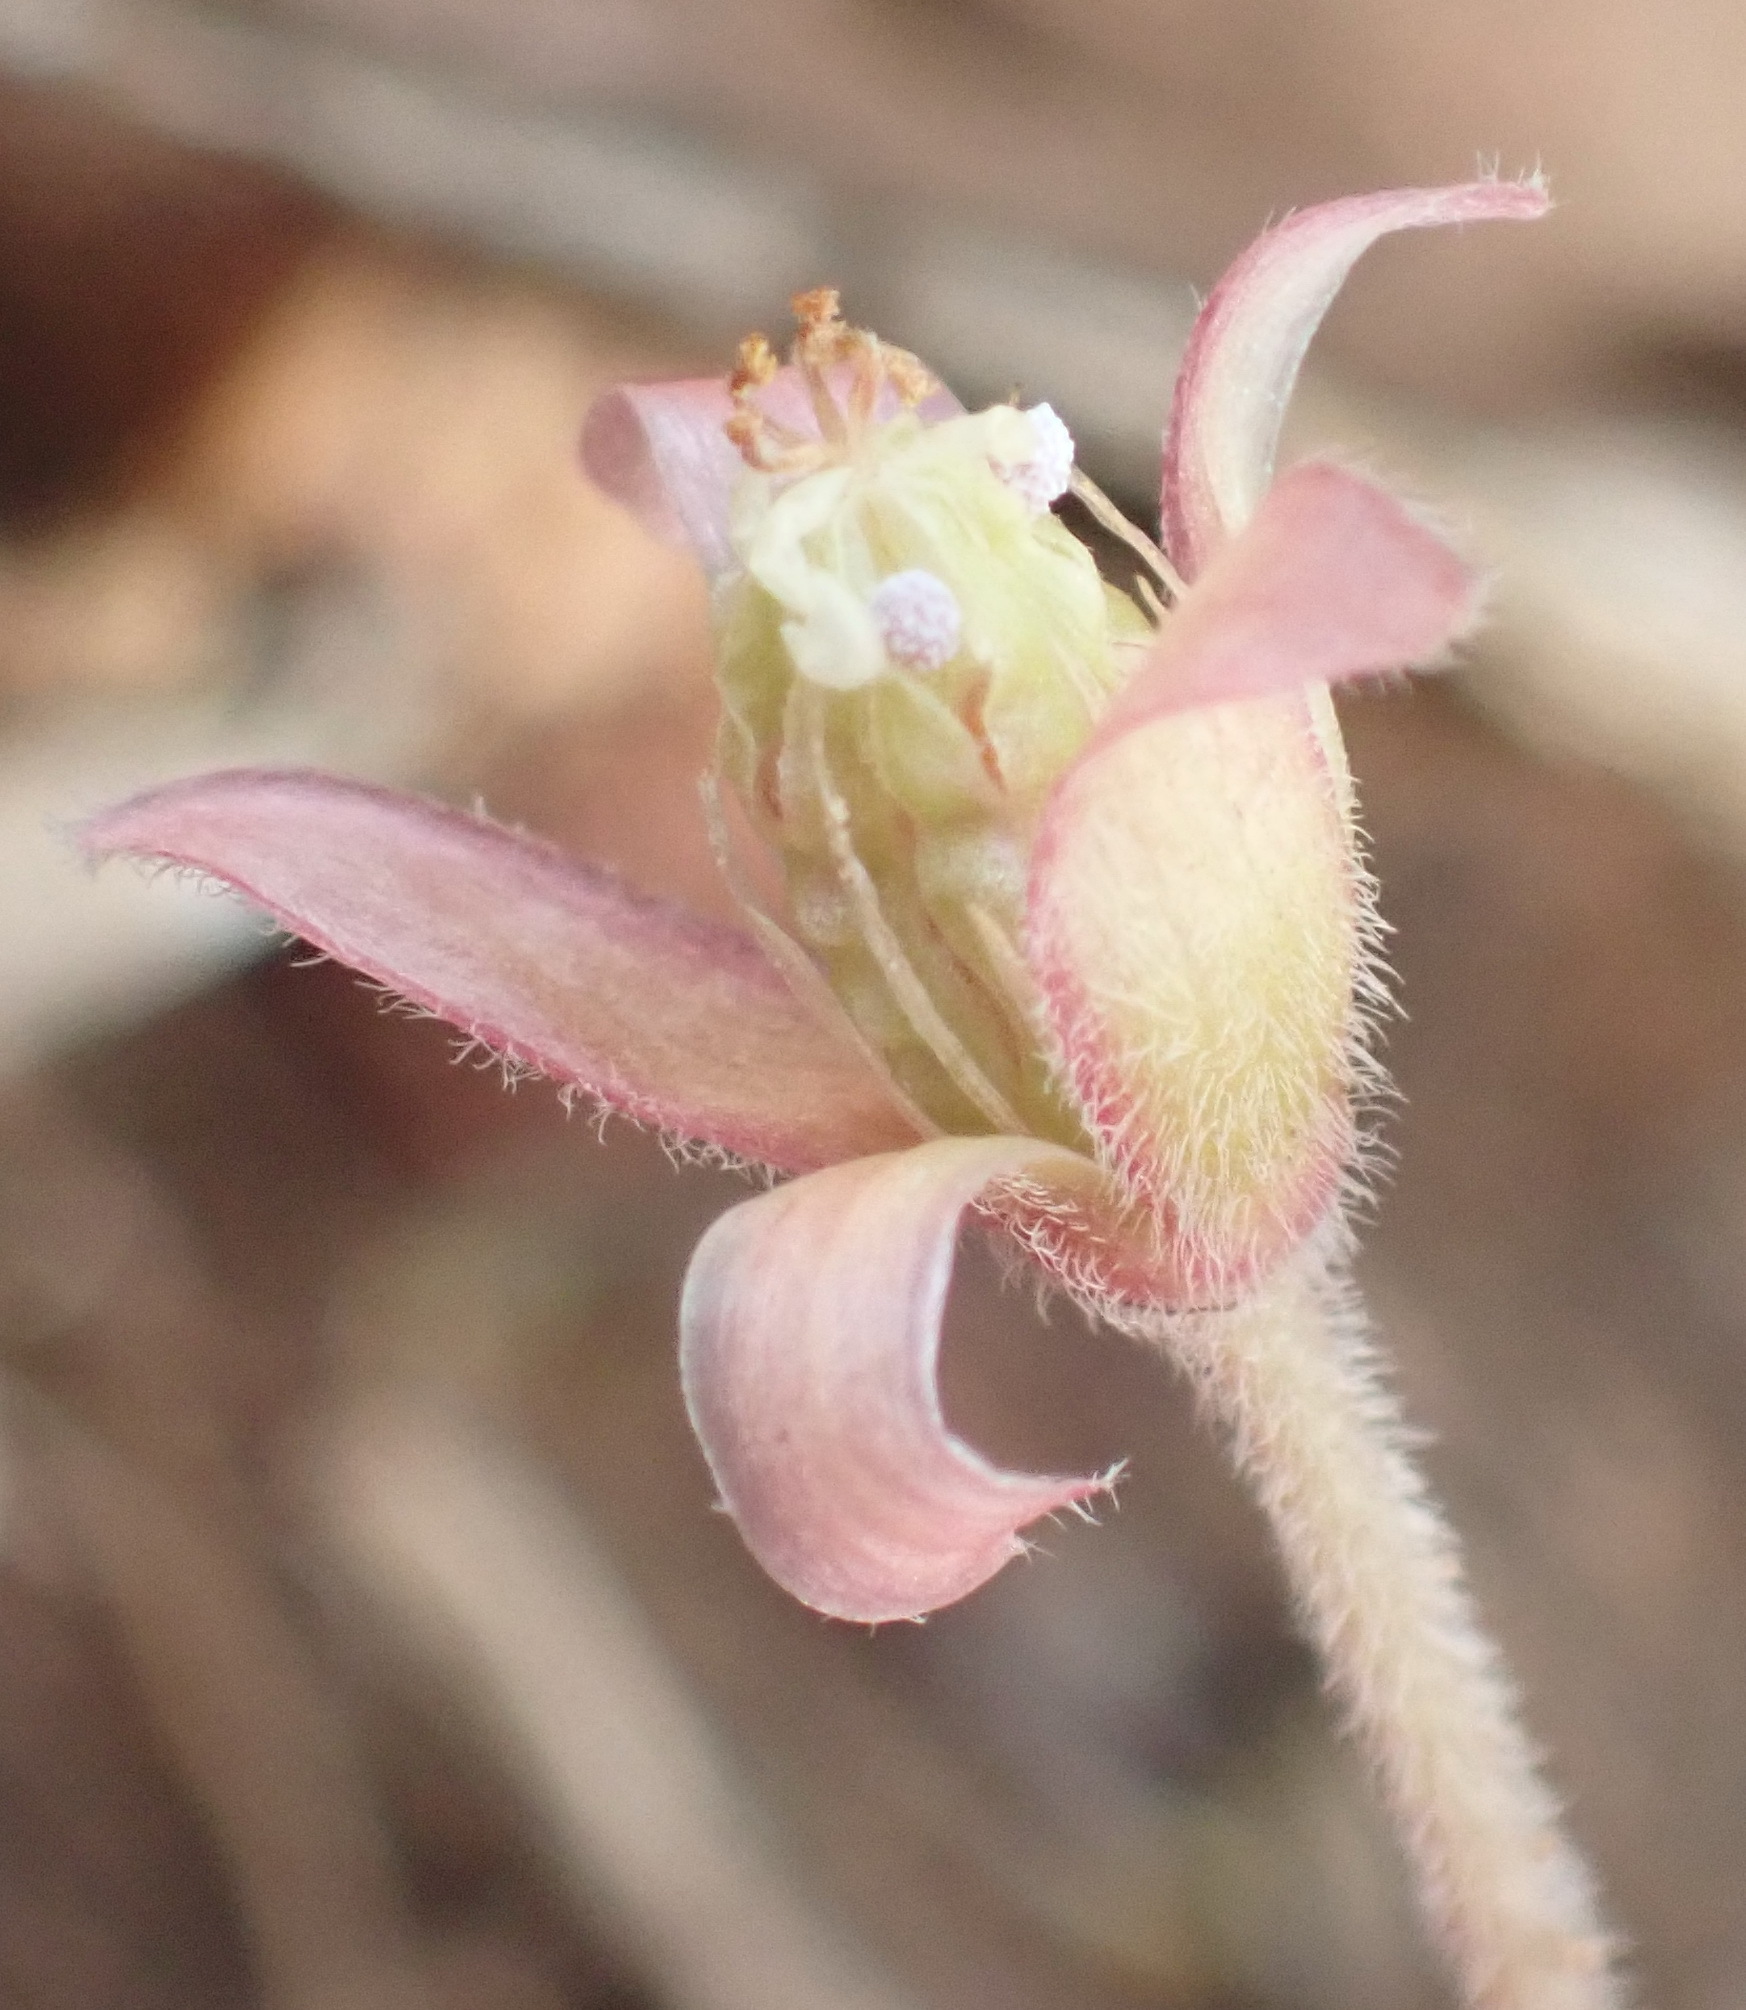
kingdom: Plantae
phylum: Tracheophyta
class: Magnoliopsida
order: Oxalidales
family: Oxalidaceae
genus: Oxalis
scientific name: Oxalis obtusa
